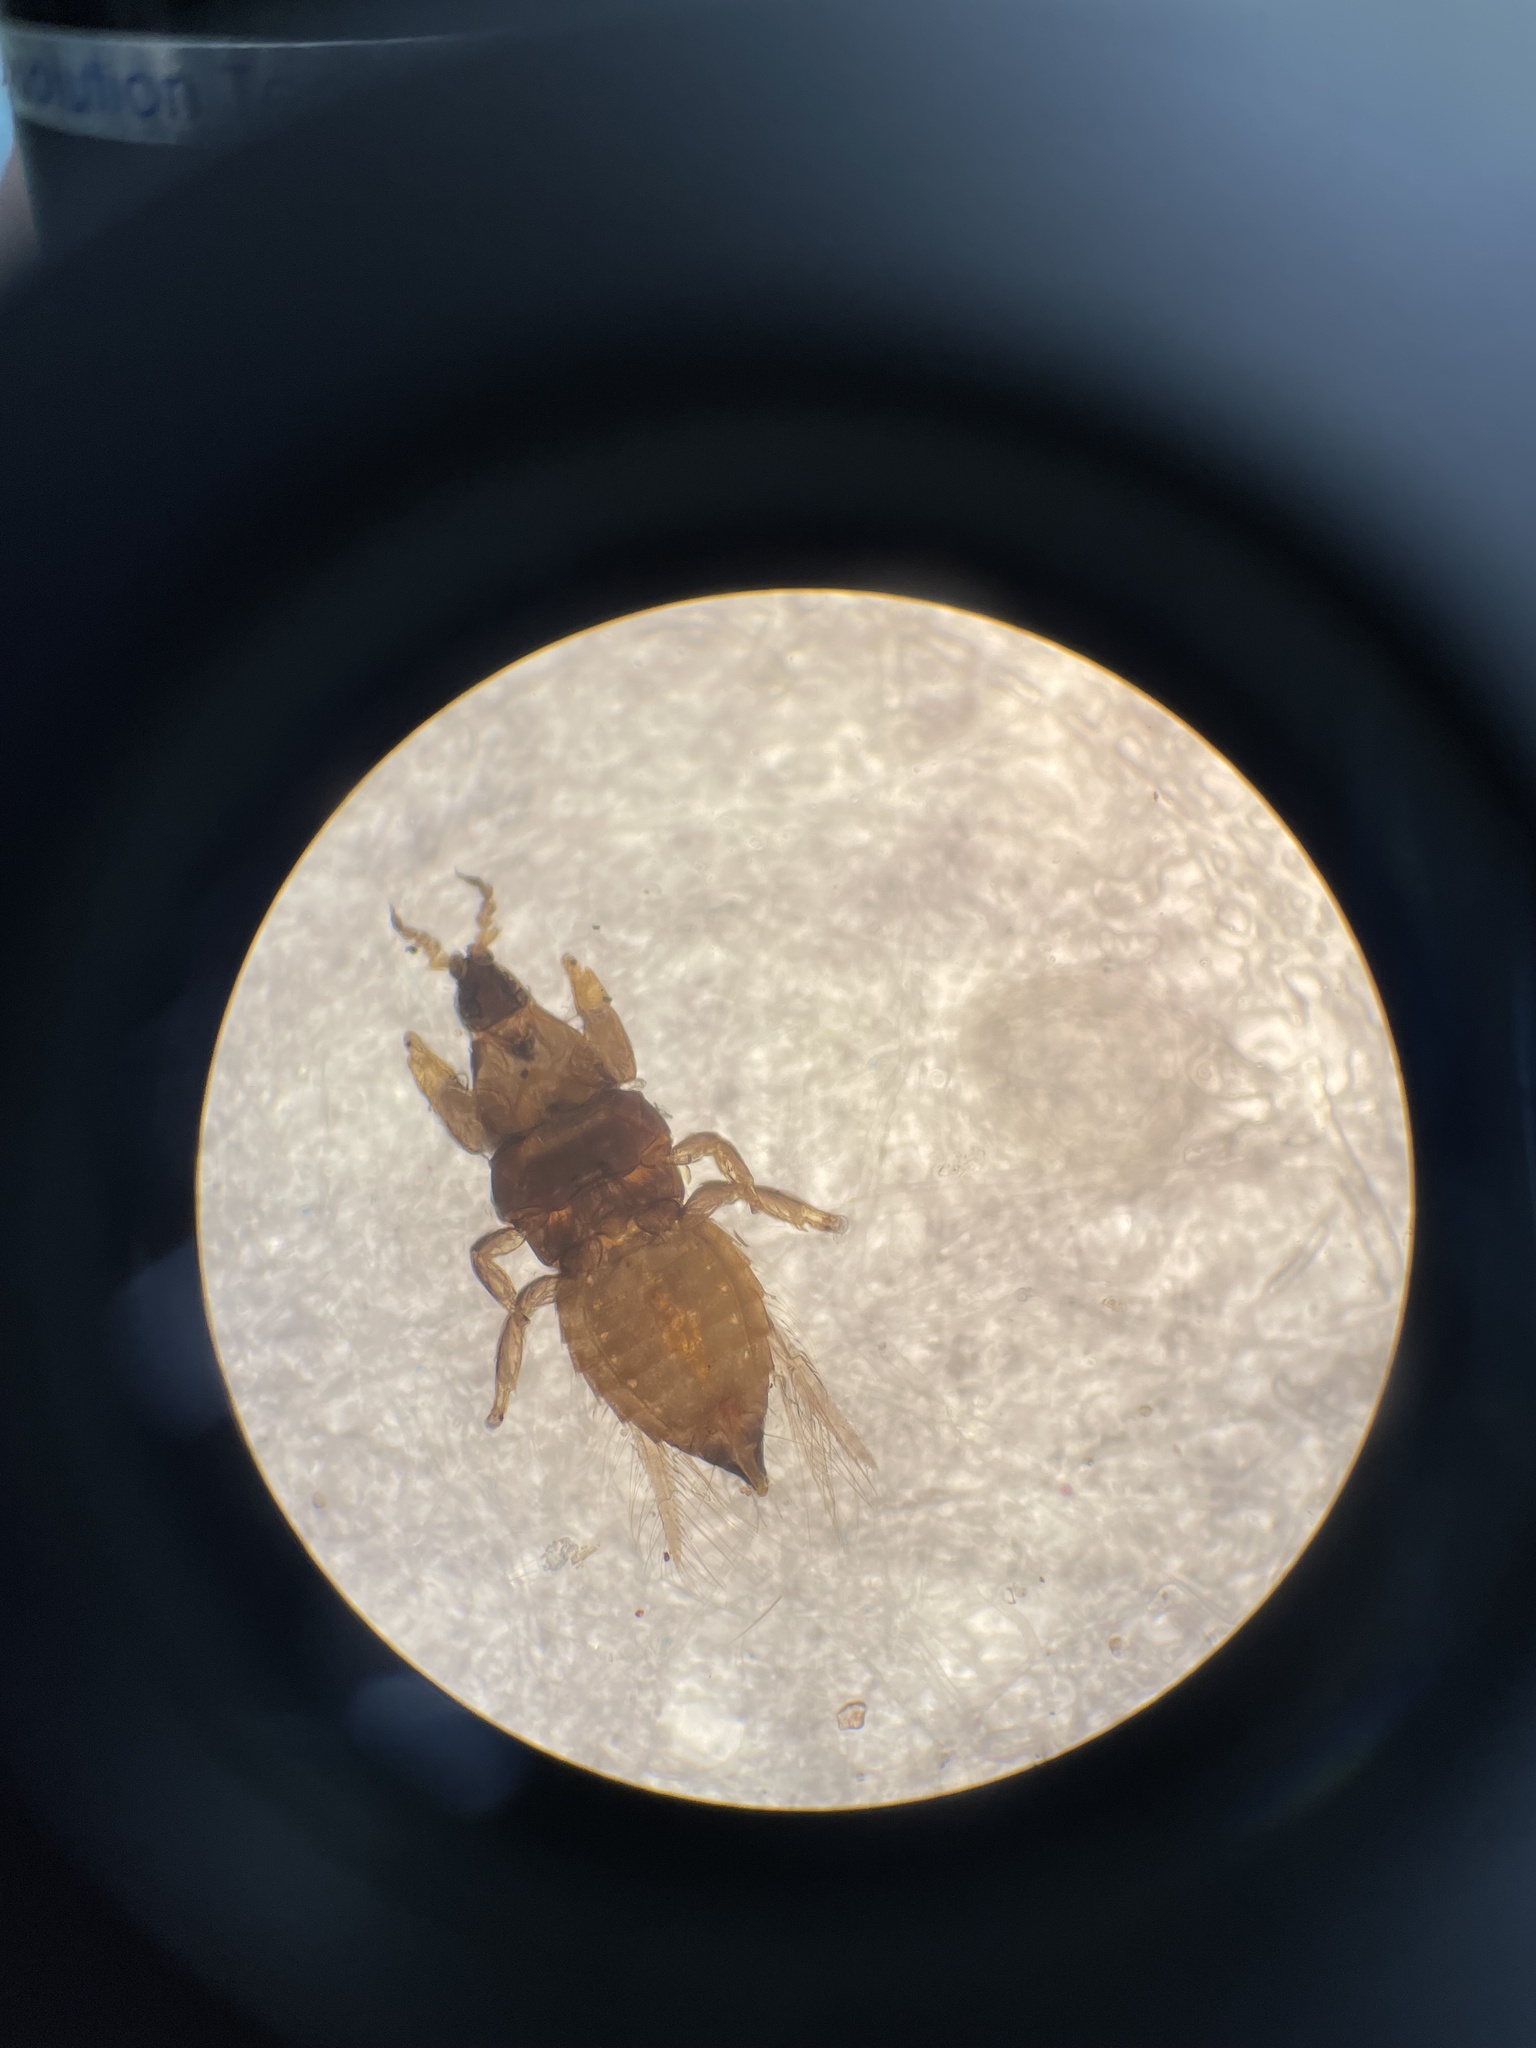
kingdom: Animalia
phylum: Arthropoda
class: Insecta
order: Thysanoptera
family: Thripidae
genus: Arorathrips
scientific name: Arorathrips mexicanus
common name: Thrip
